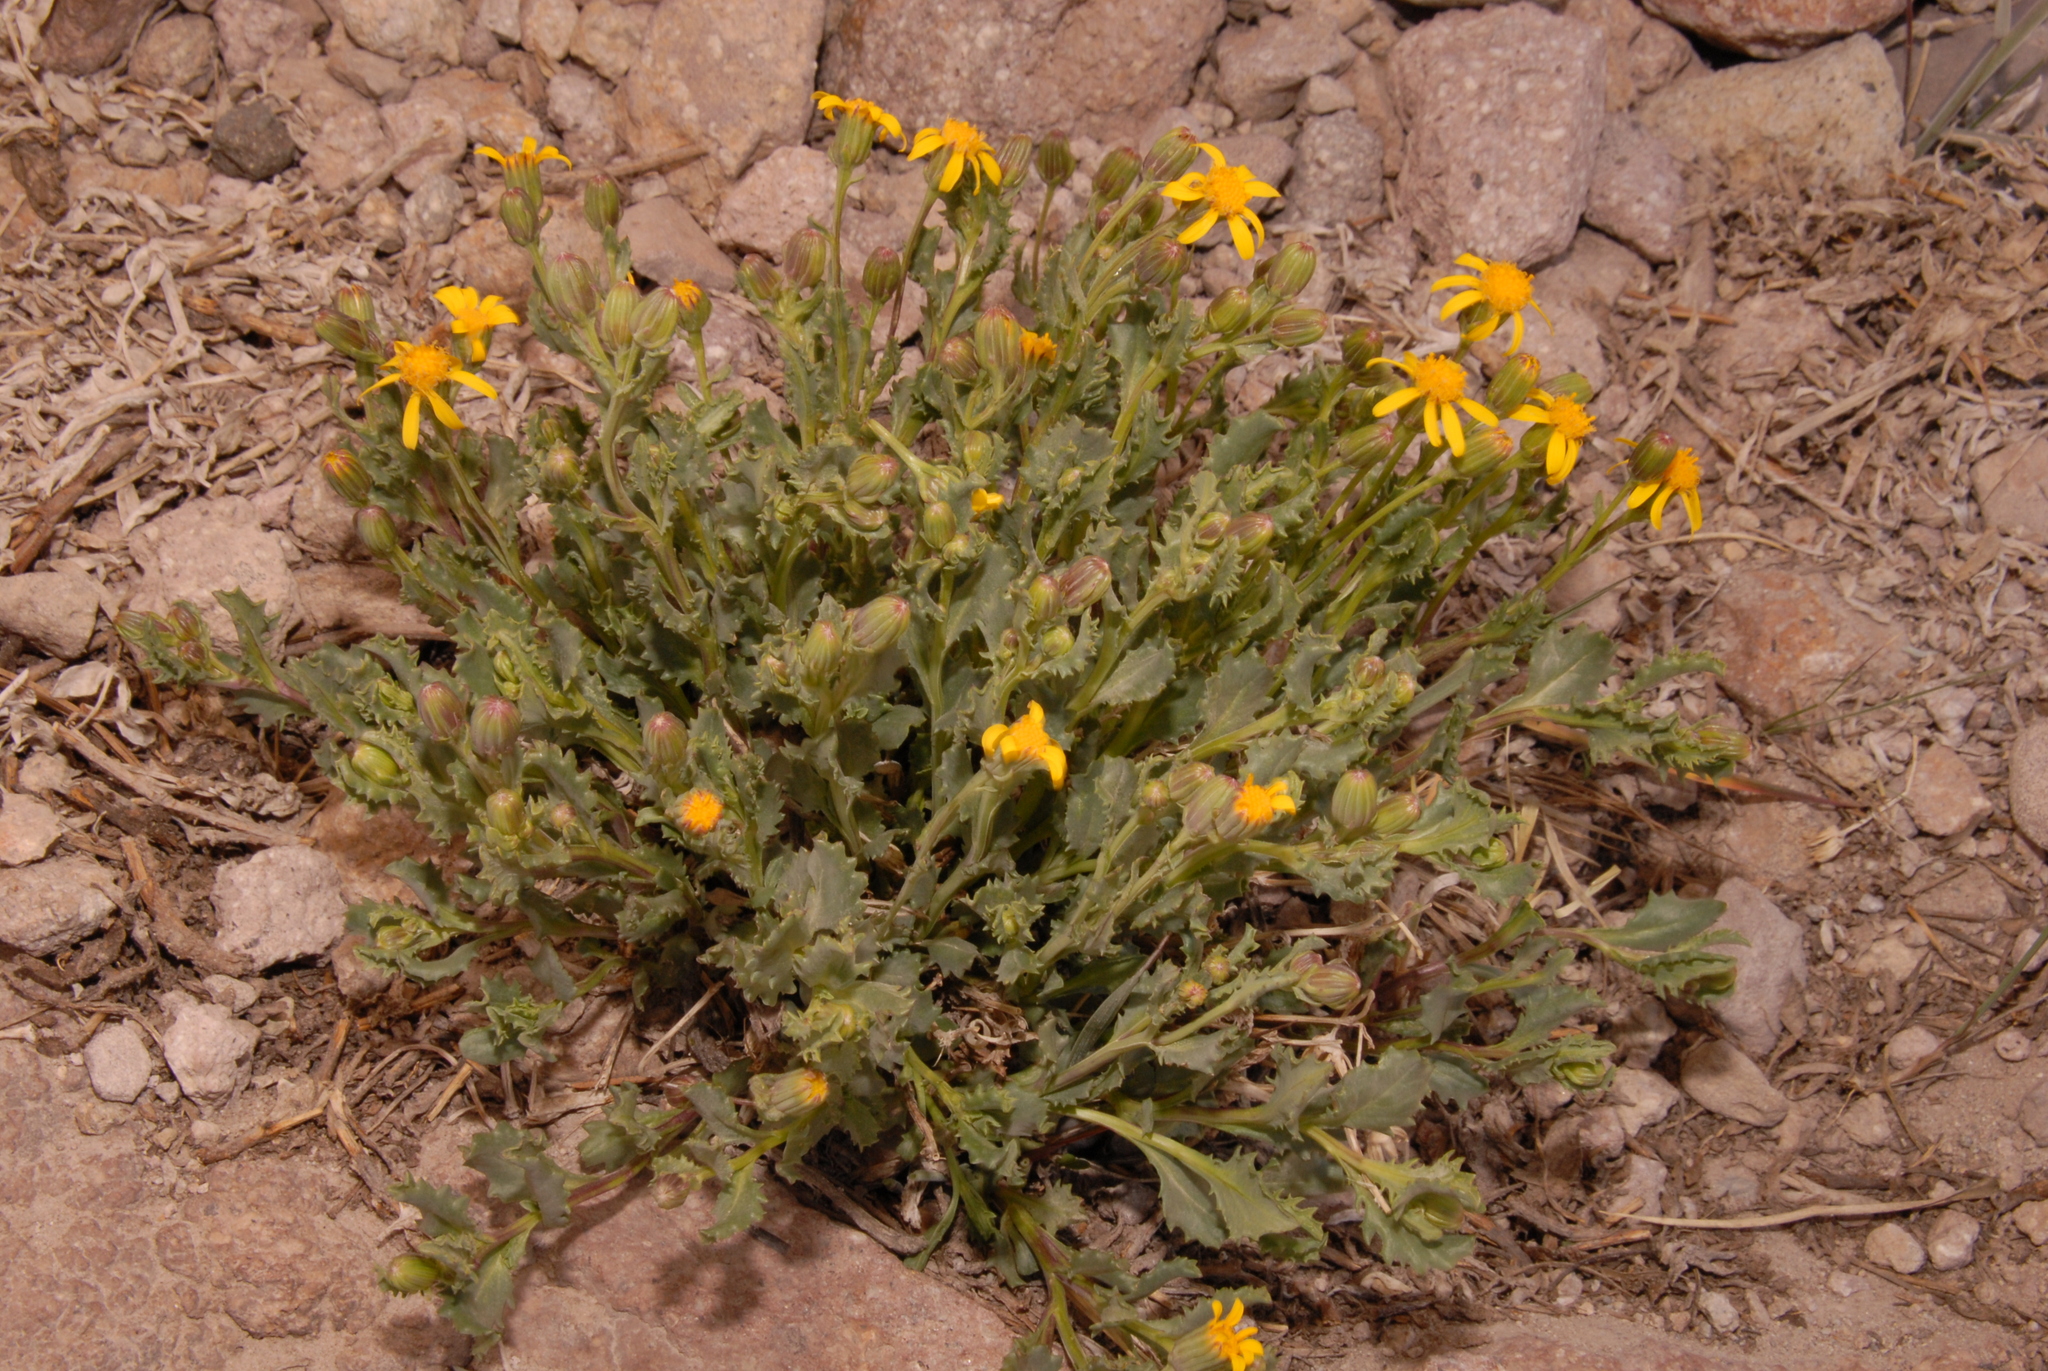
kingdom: Plantae
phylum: Tracheophyta
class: Magnoliopsida
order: Asterales
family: Asteraceae
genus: Senecio
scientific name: Senecio fremontii
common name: Fremont's groundsel
